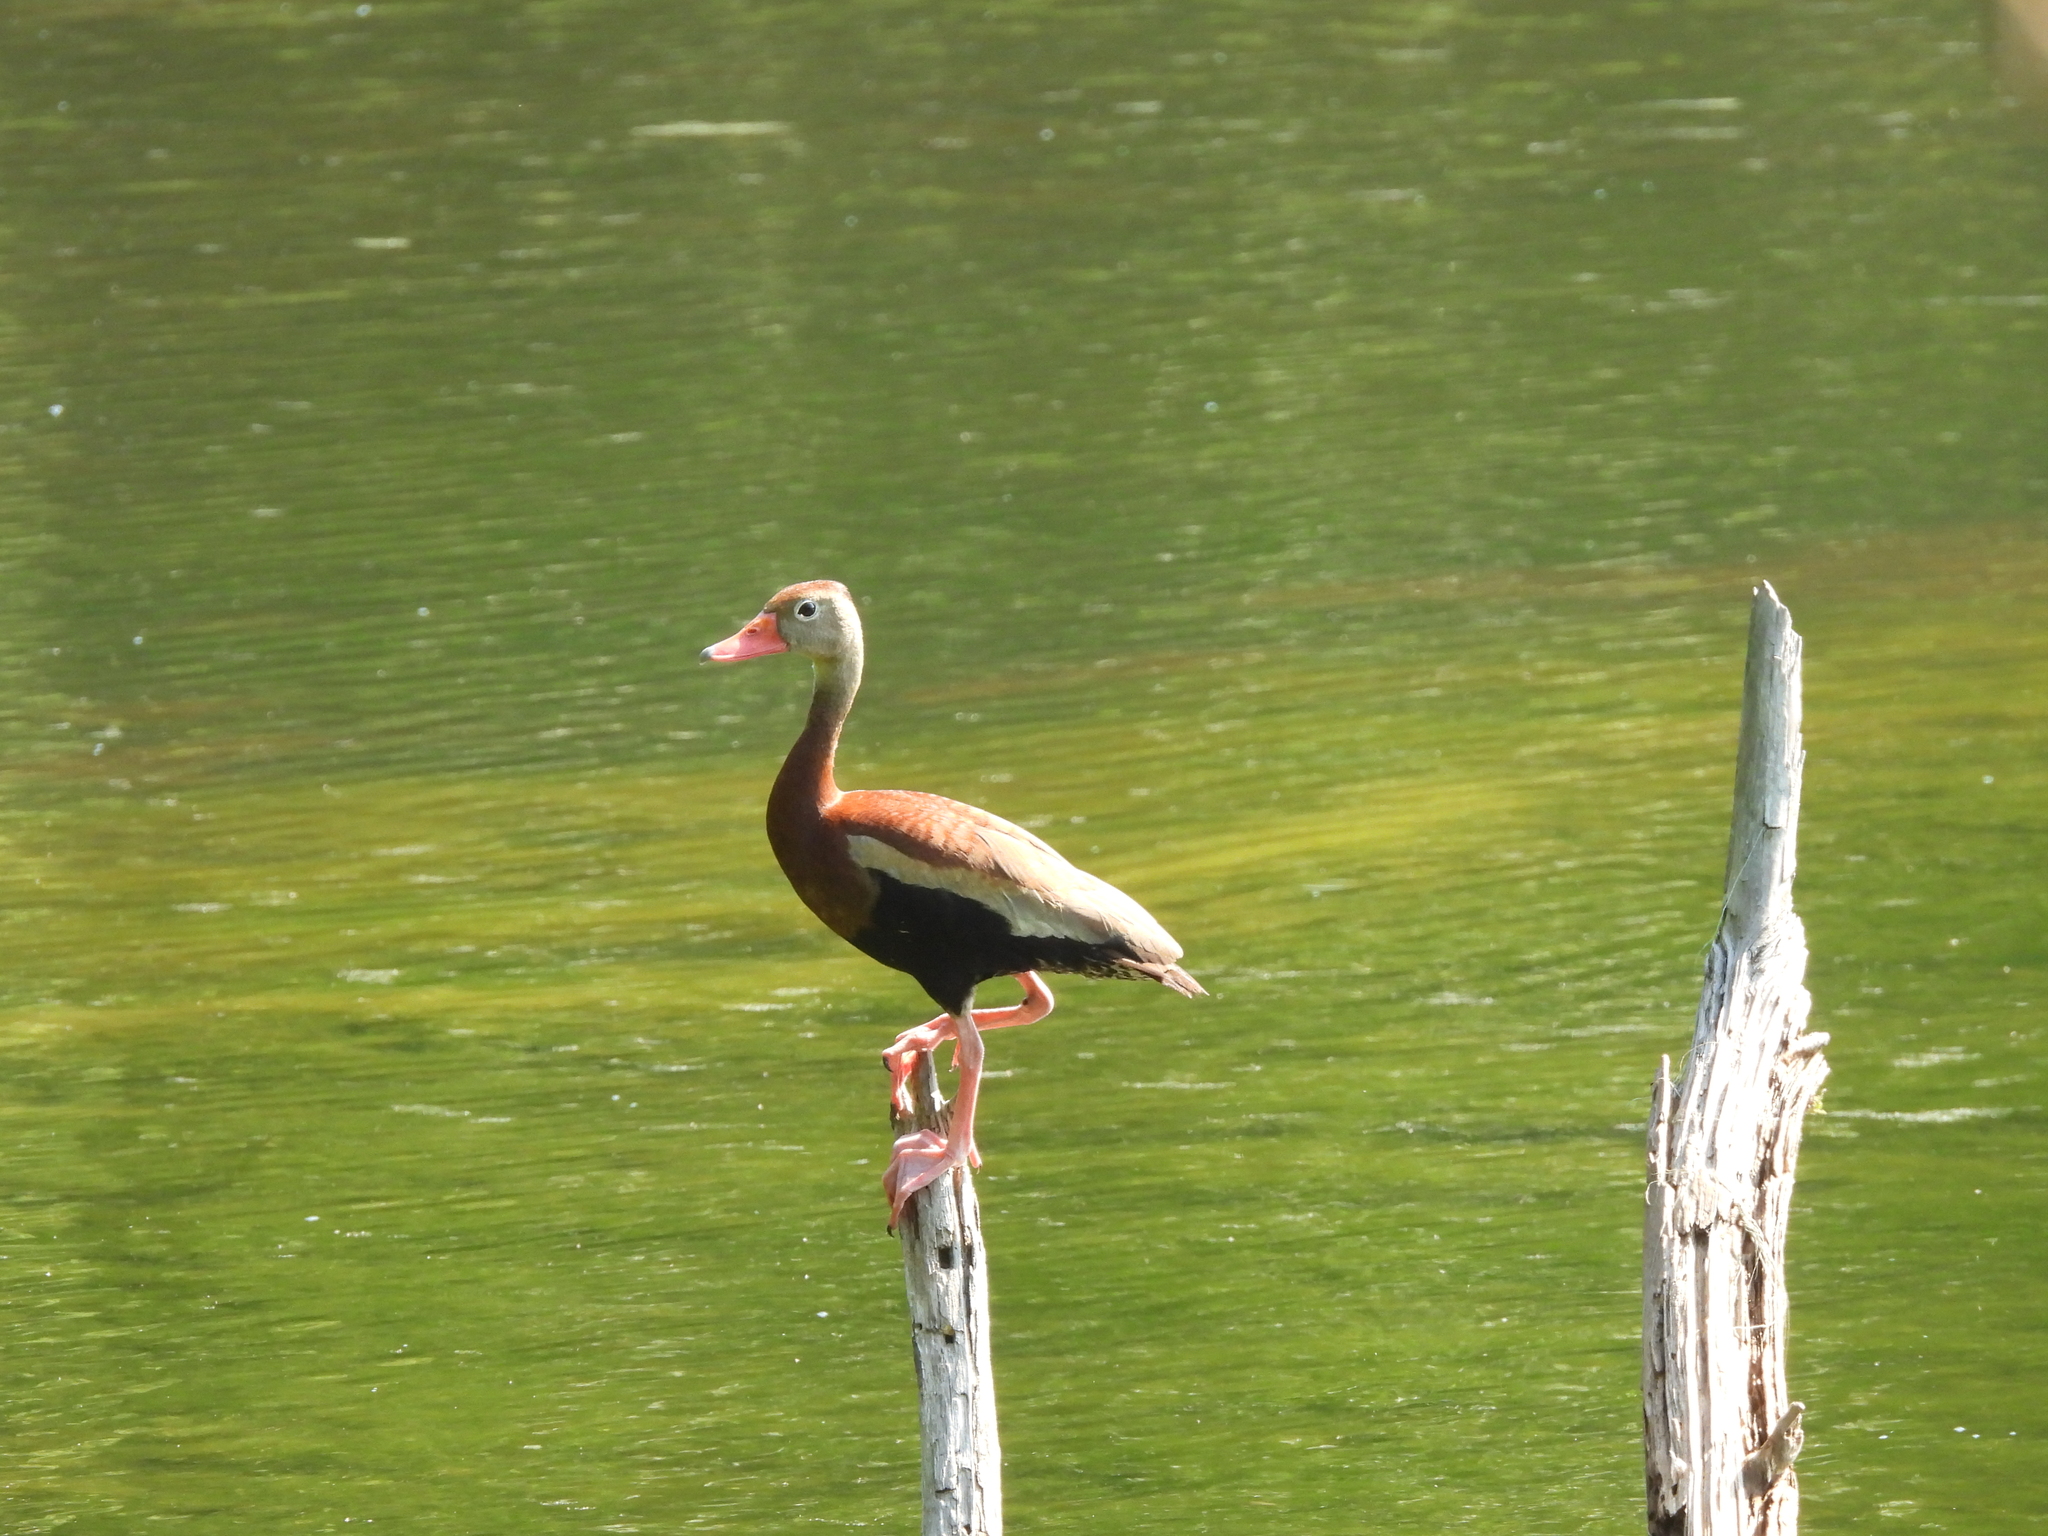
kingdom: Animalia
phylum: Chordata
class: Aves
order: Anseriformes
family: Anatidae
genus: Dendrocygna
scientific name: Dendrocygna autumnalis
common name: Black-bellied whistling duck
